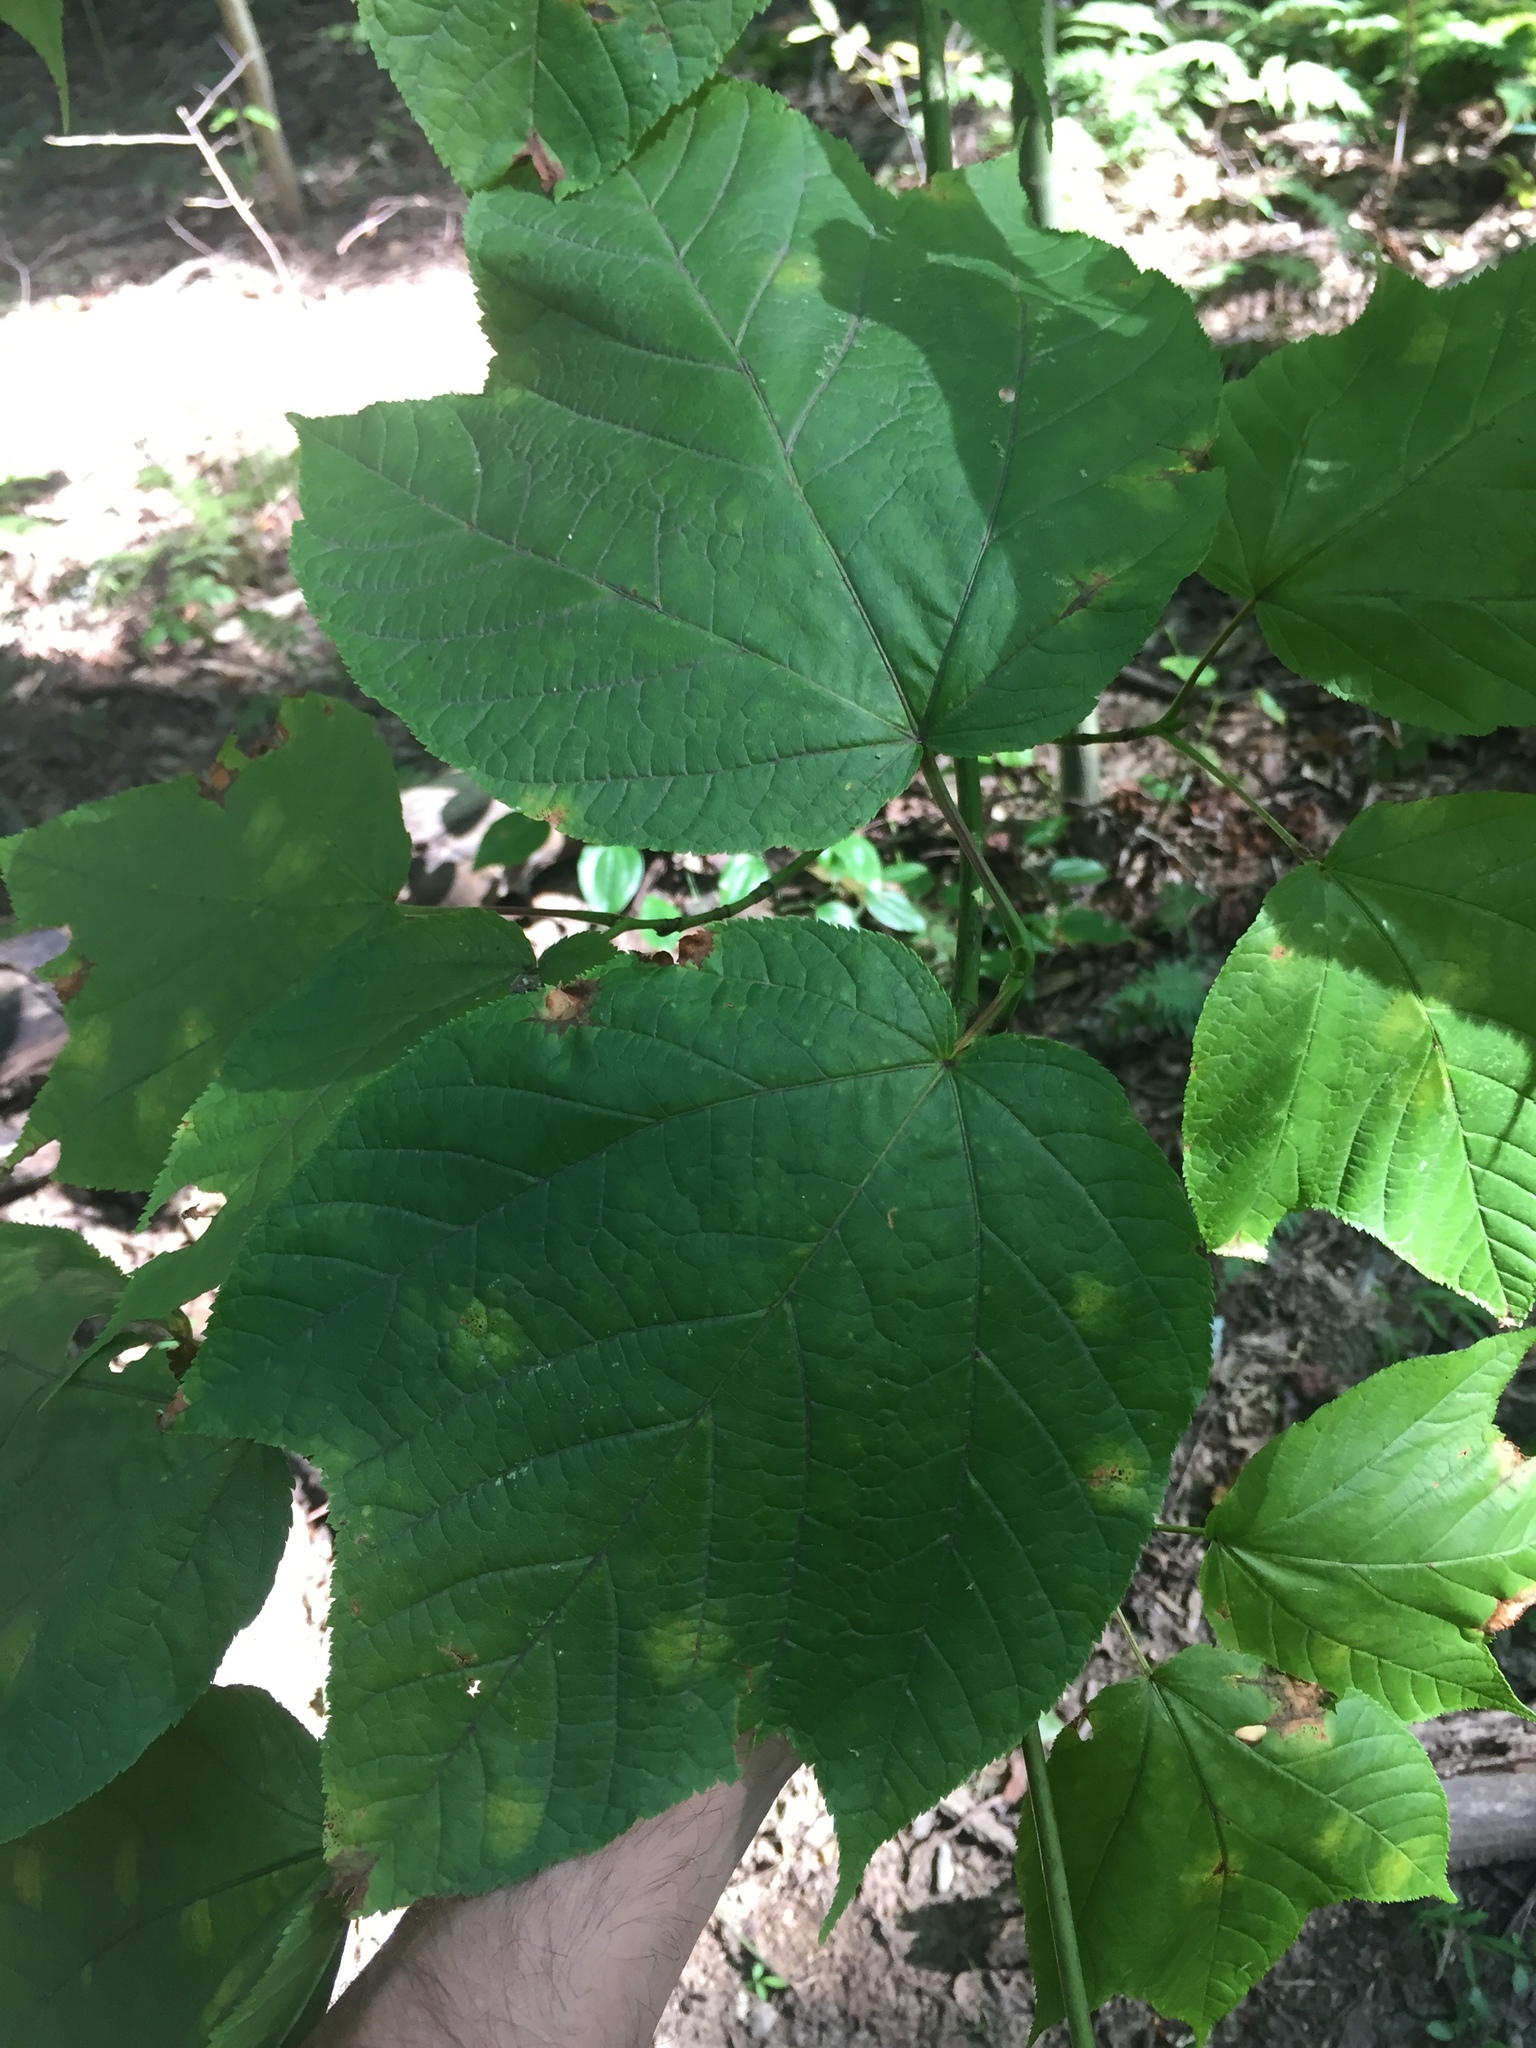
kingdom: Plantae
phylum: Tracheophyta
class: Magnoliopsida
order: Sapindales
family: Sapindaceae
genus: Acer
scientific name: Acer pensylvanicum
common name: Moosewood
